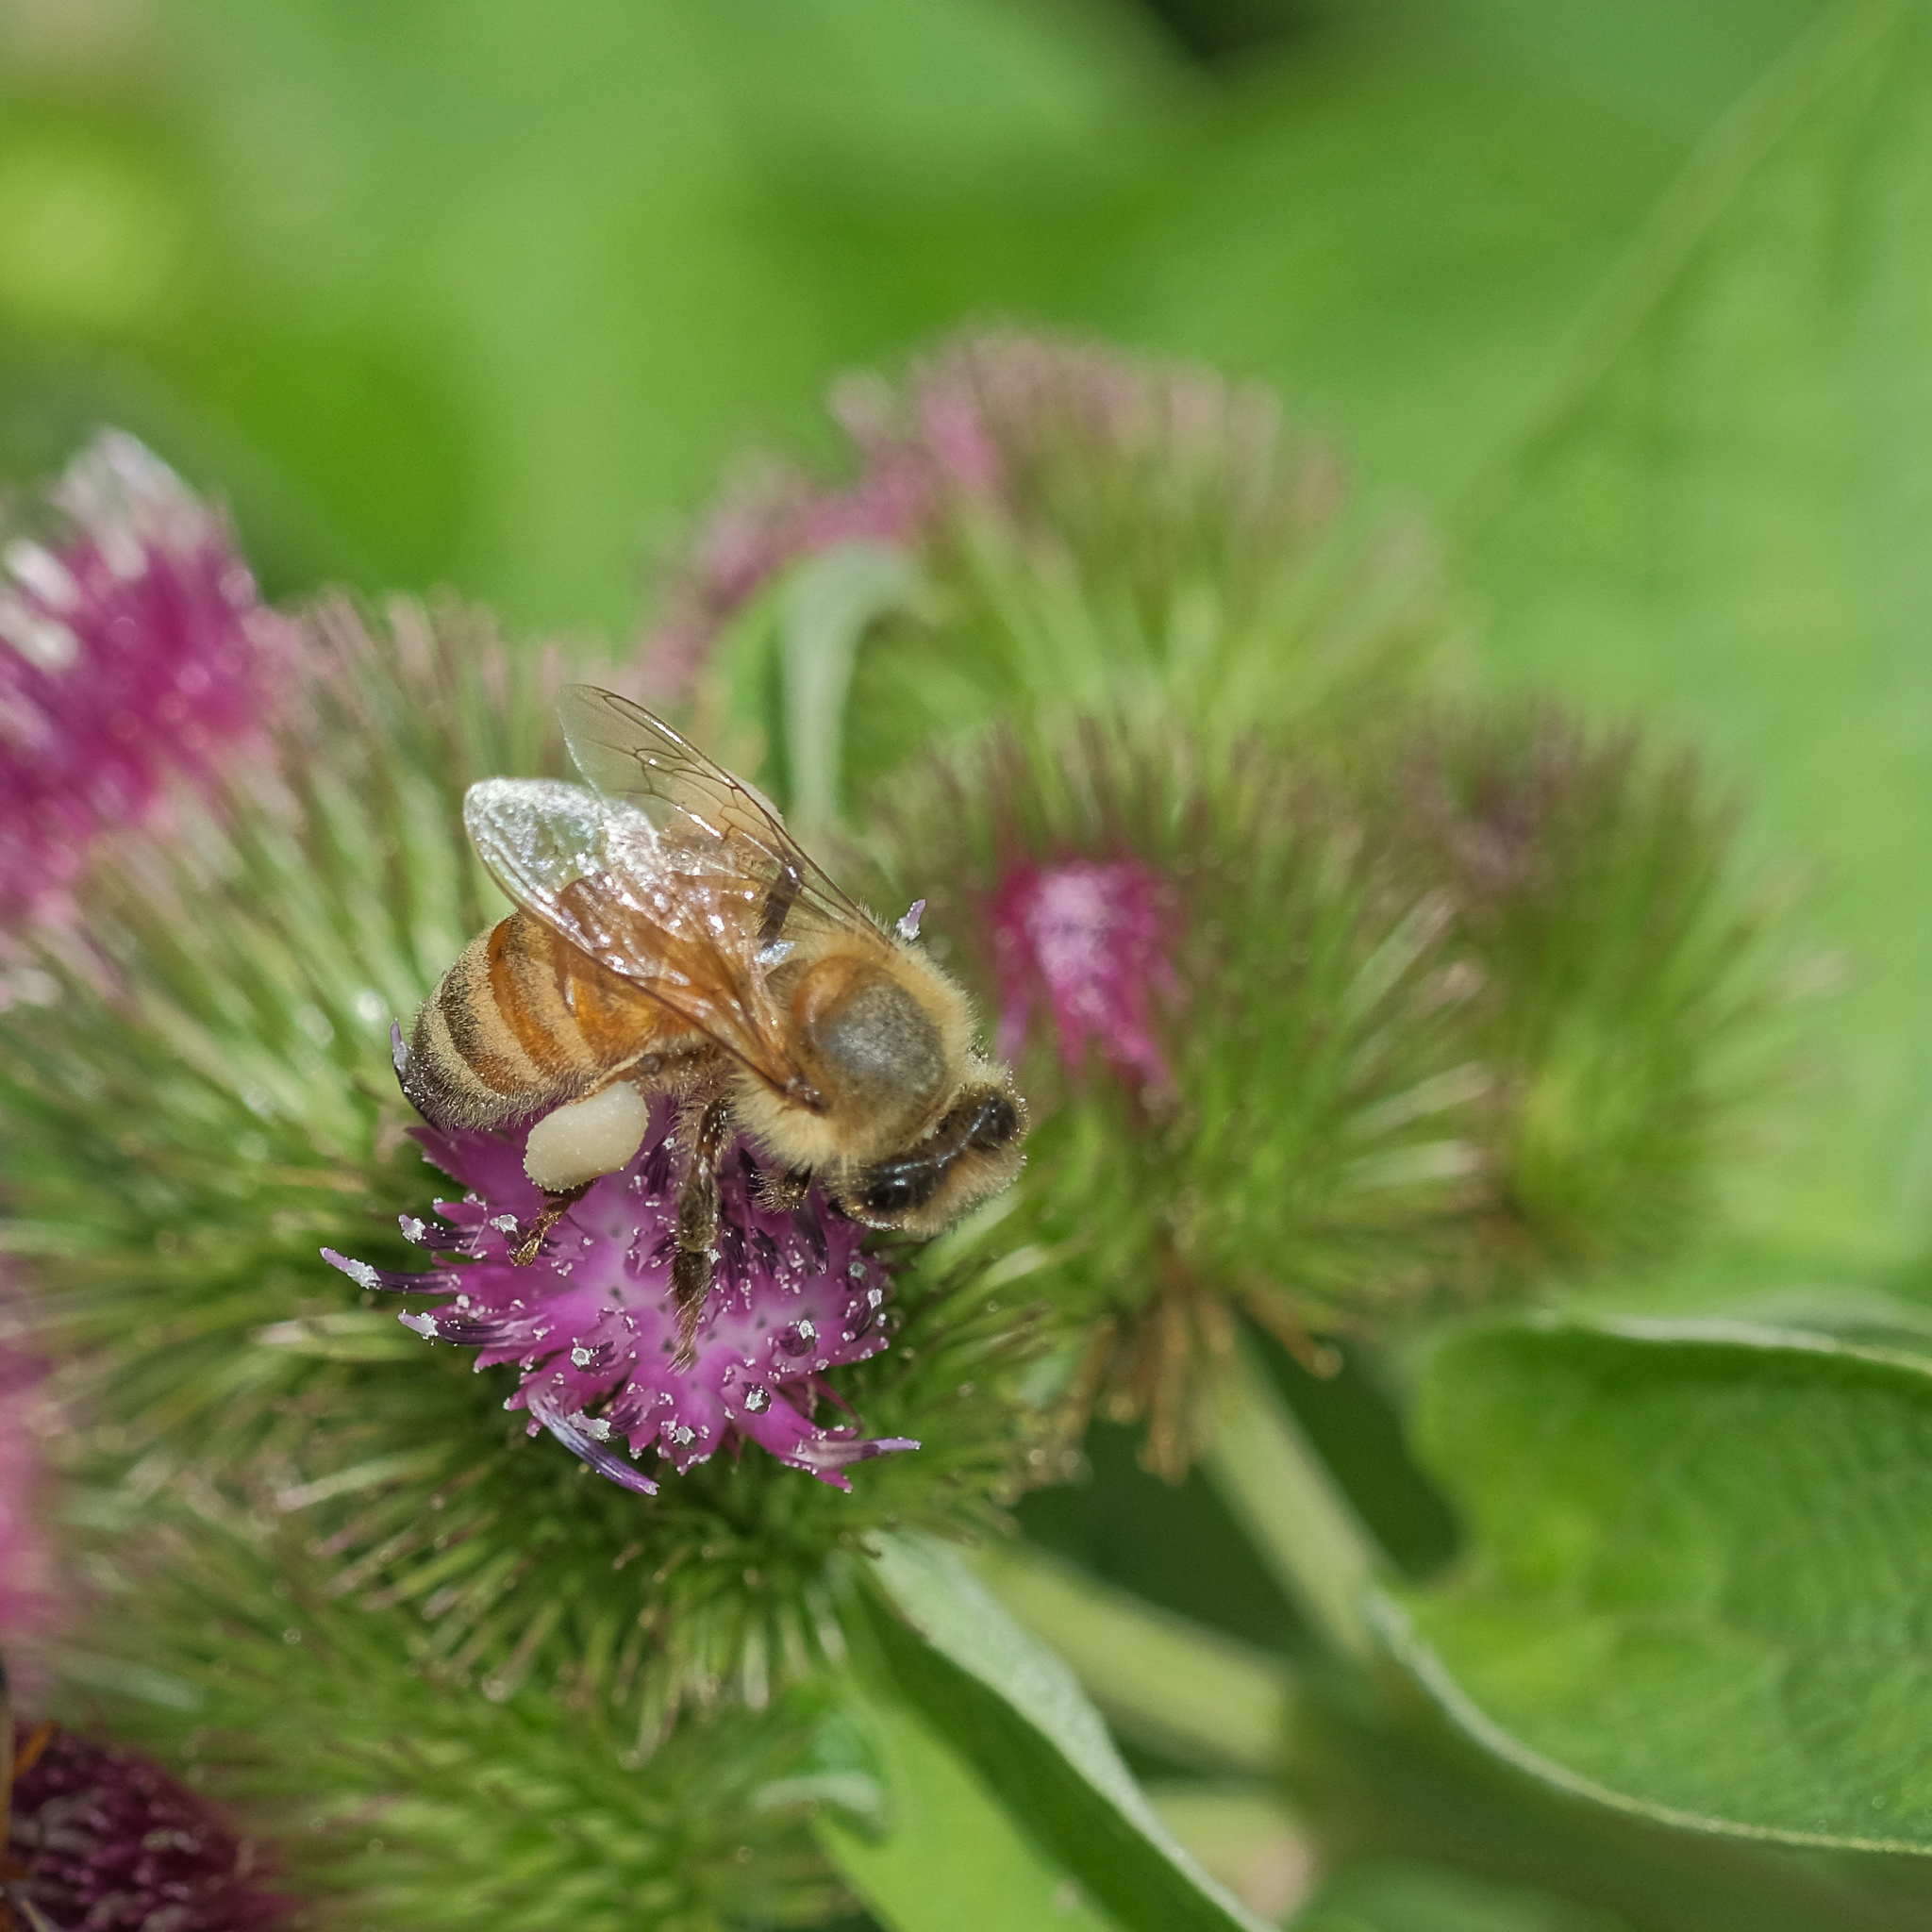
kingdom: Animalia
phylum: Arthropoda
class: Insecta
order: Hymenoptera
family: Apidae
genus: Apis
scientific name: Apis mellifera
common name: Honey bee
